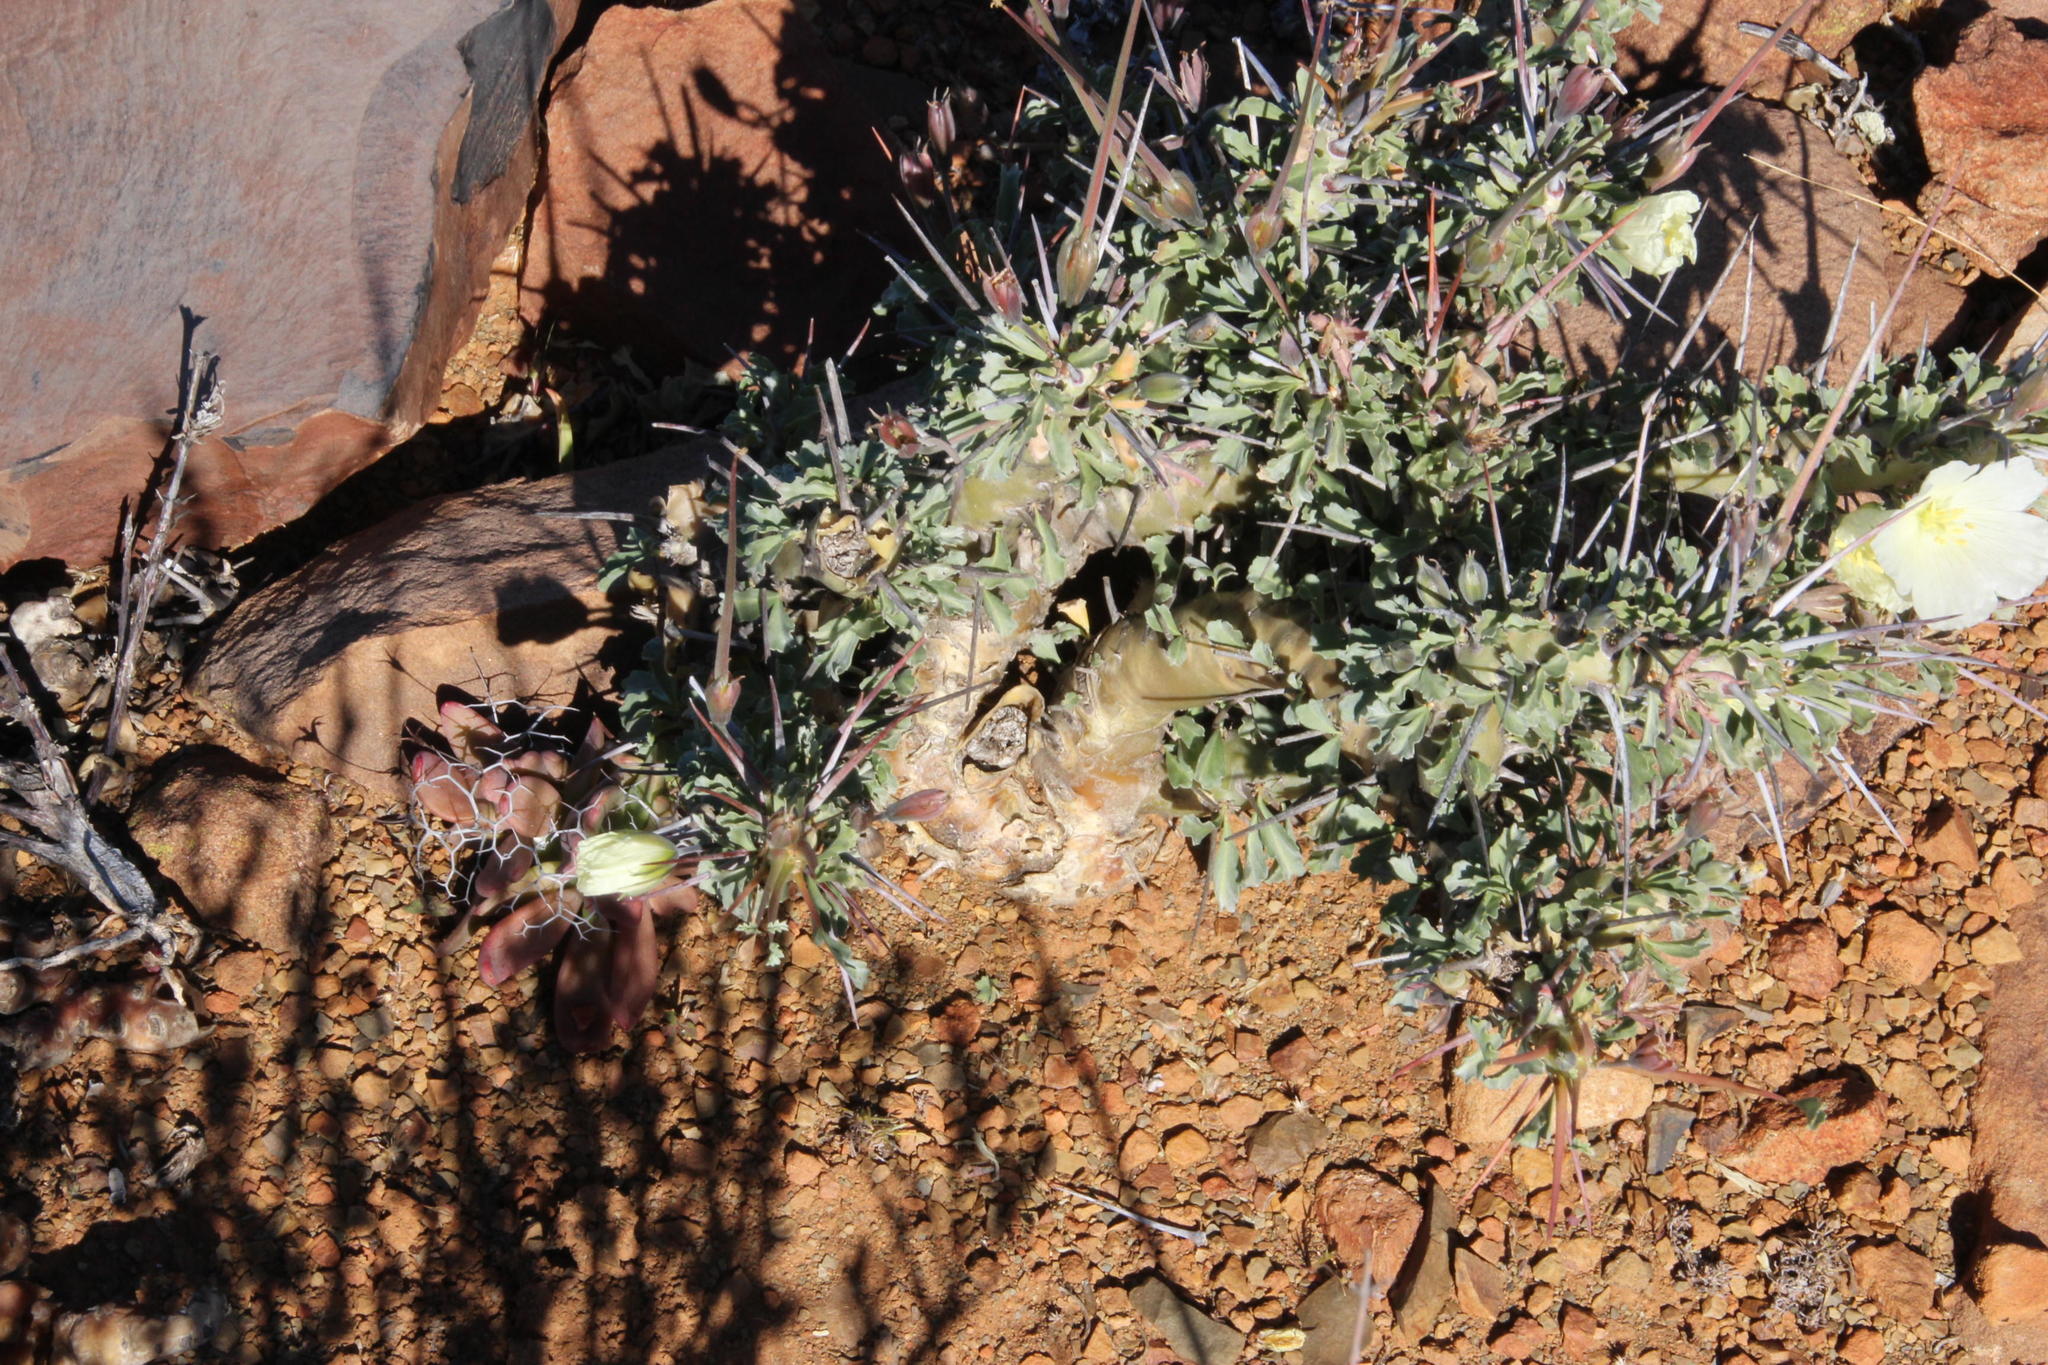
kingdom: Plantae
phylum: Tracheophyta
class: Magnoliopsida
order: Geraniales
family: Geraniaceae
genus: Monsonia
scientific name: Monsonia crassicaulis
